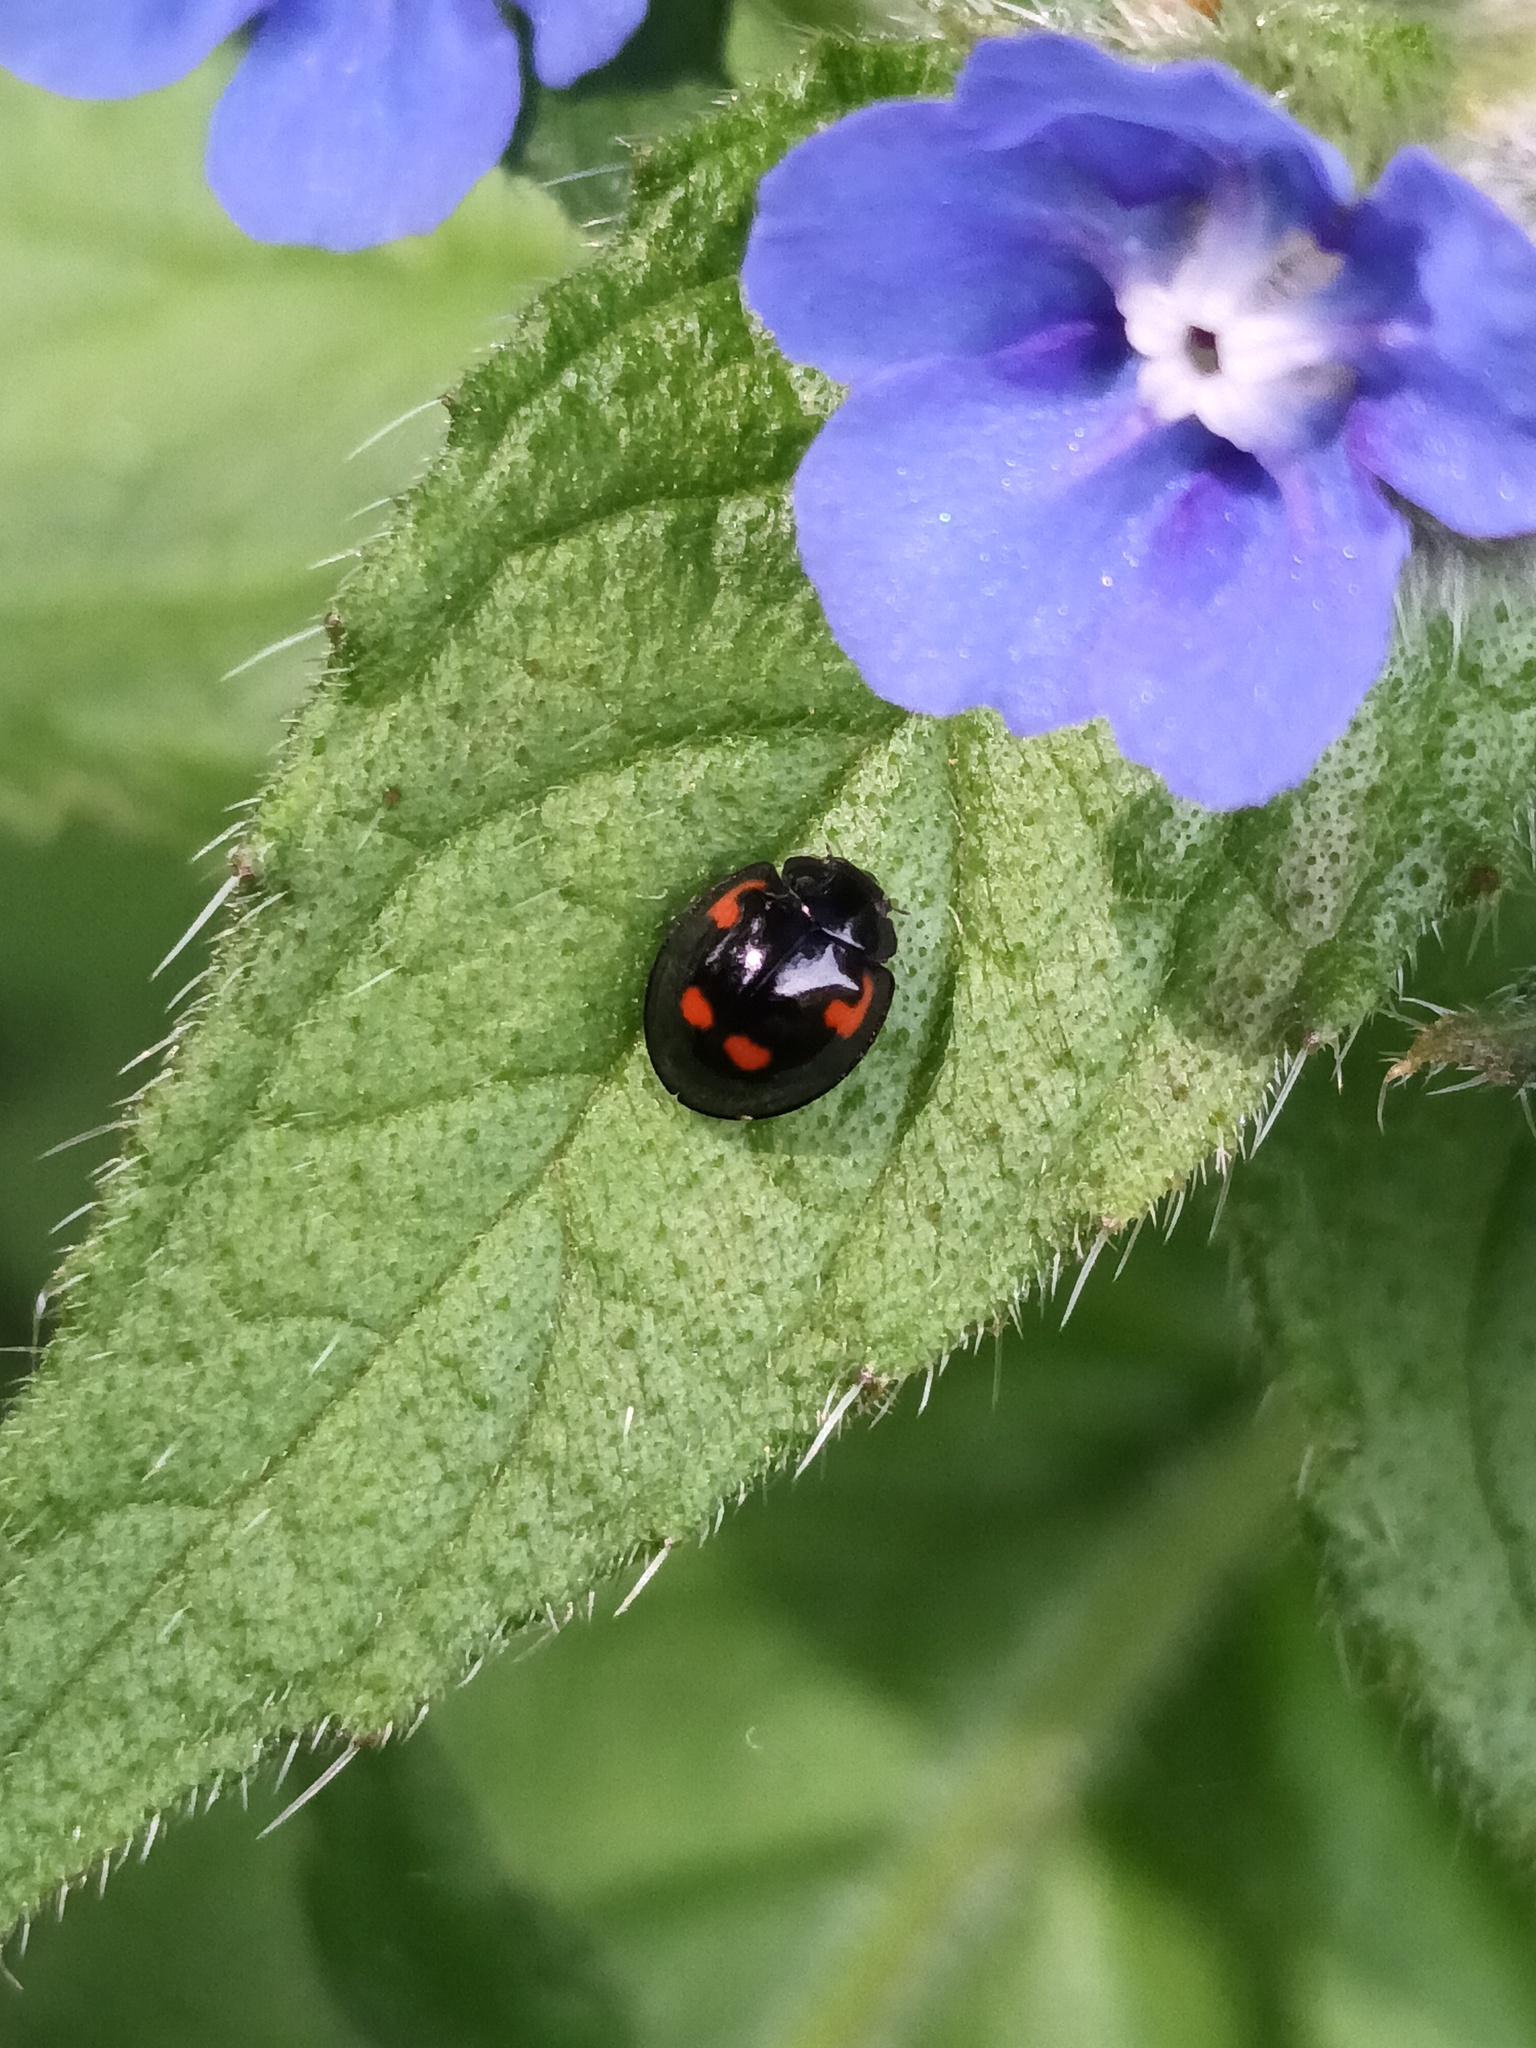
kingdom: Animalia
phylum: Arthropoda
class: Insecta
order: Coleoptera
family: Coccinellidae
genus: Brumus
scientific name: Brumus quadripustulatus
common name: Ladybird beetle
